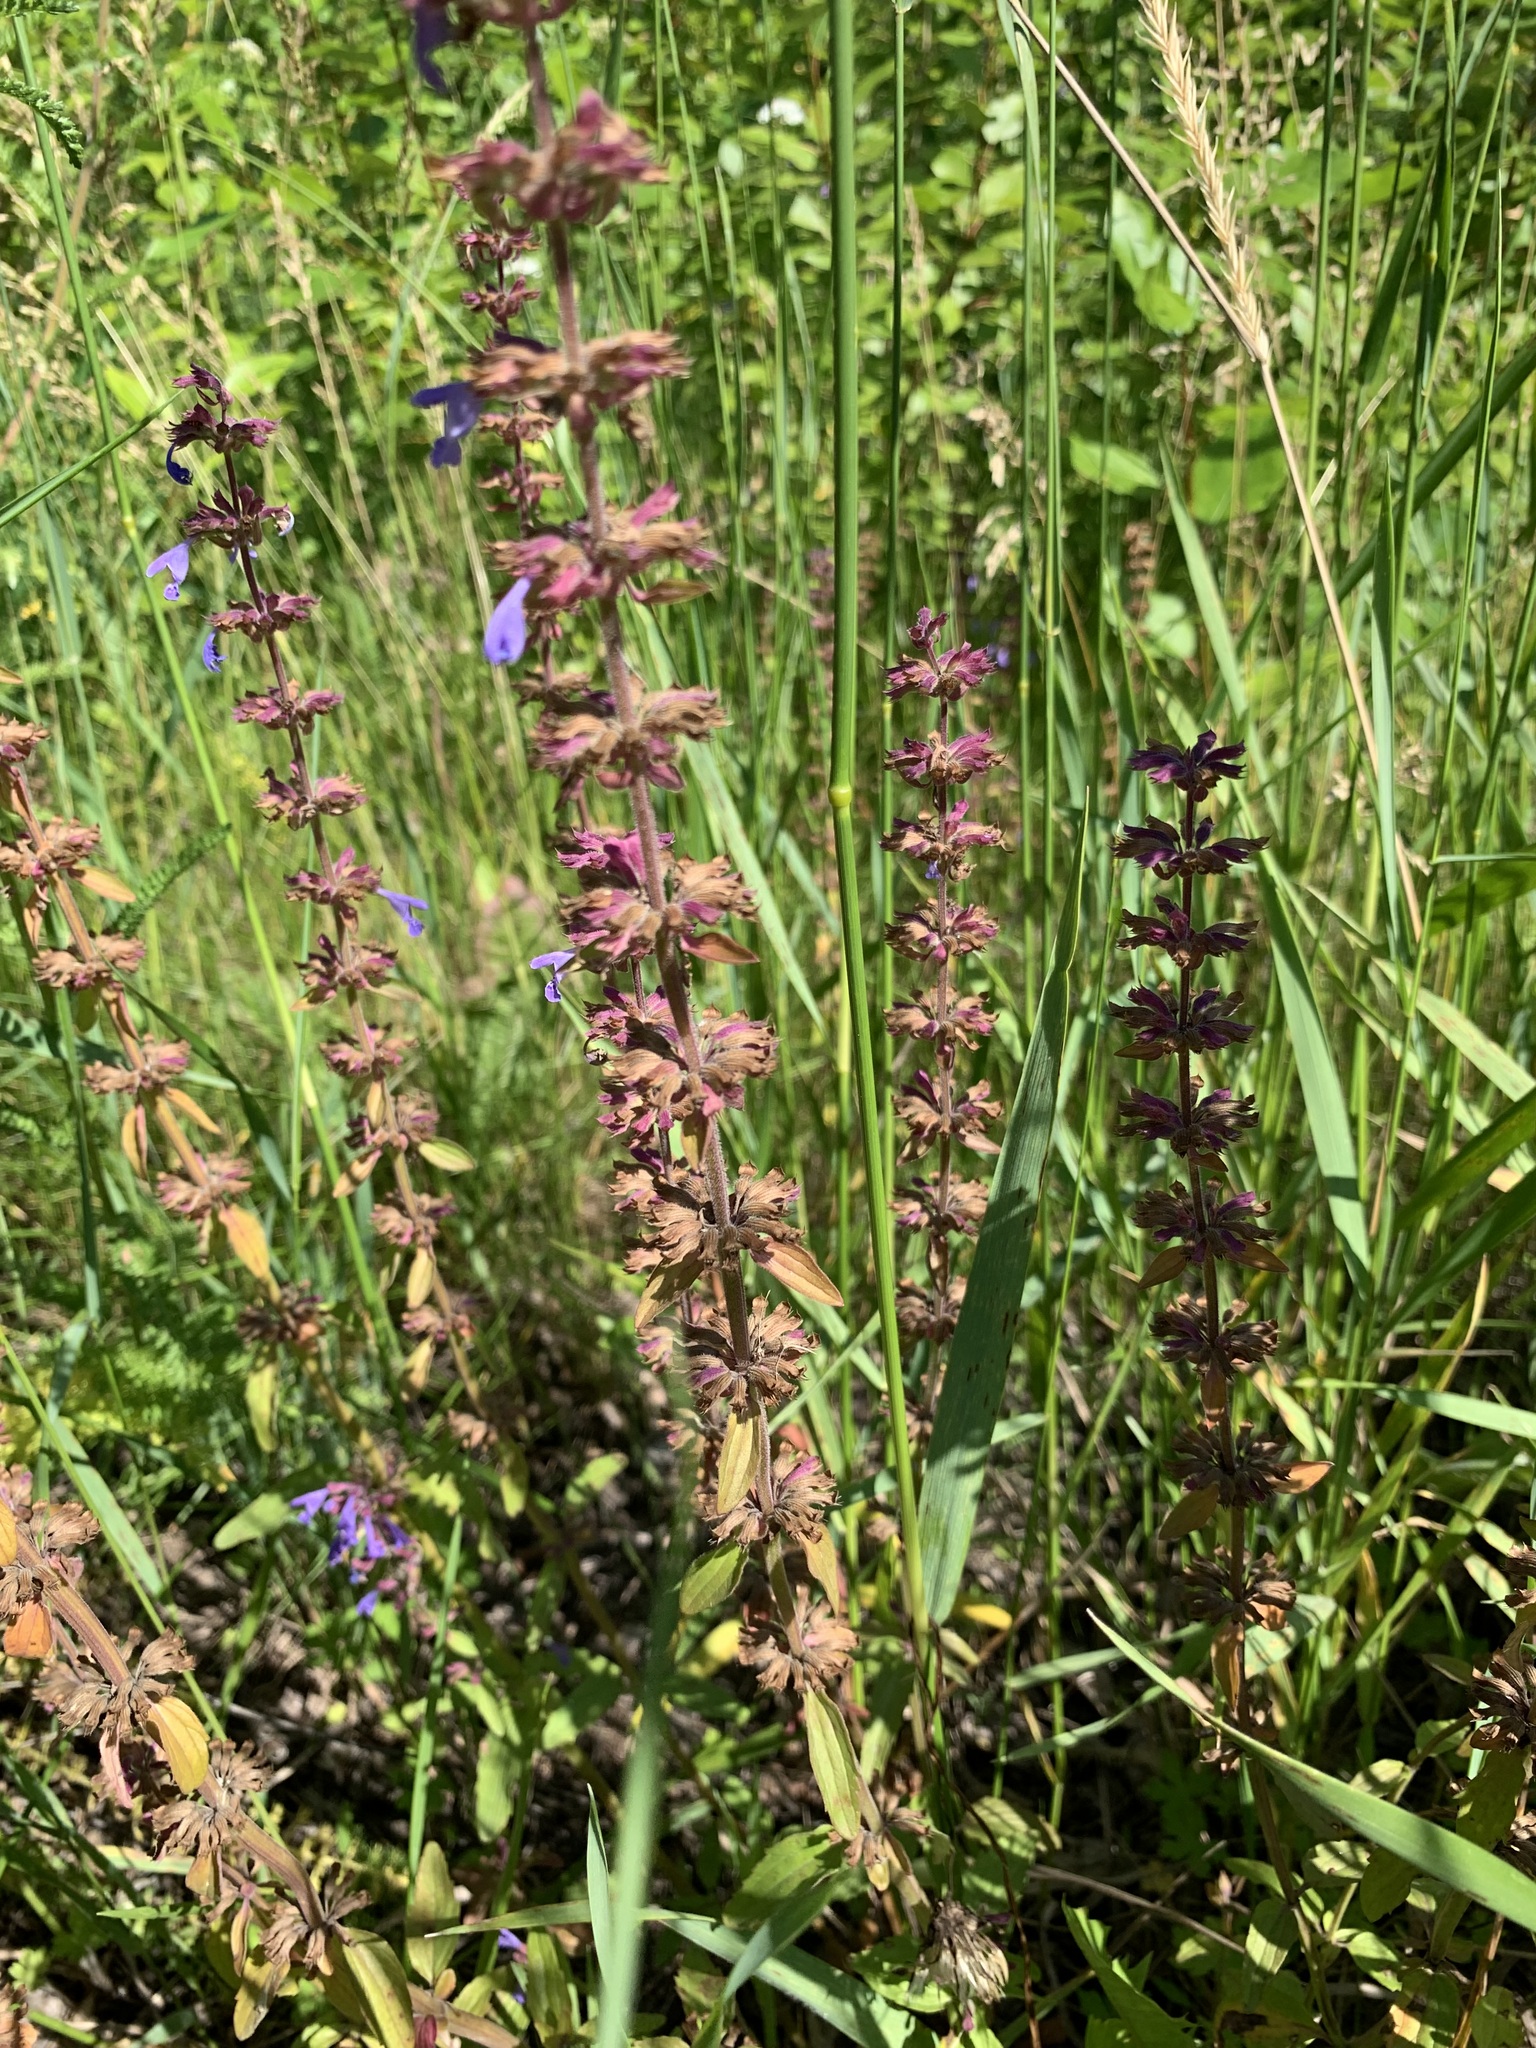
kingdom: Plantae
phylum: Tracheophyta
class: Magnoliopsida
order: Lamiales
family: Lamiaceae
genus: Dracocephalum
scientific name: Dracocephalum nutans
